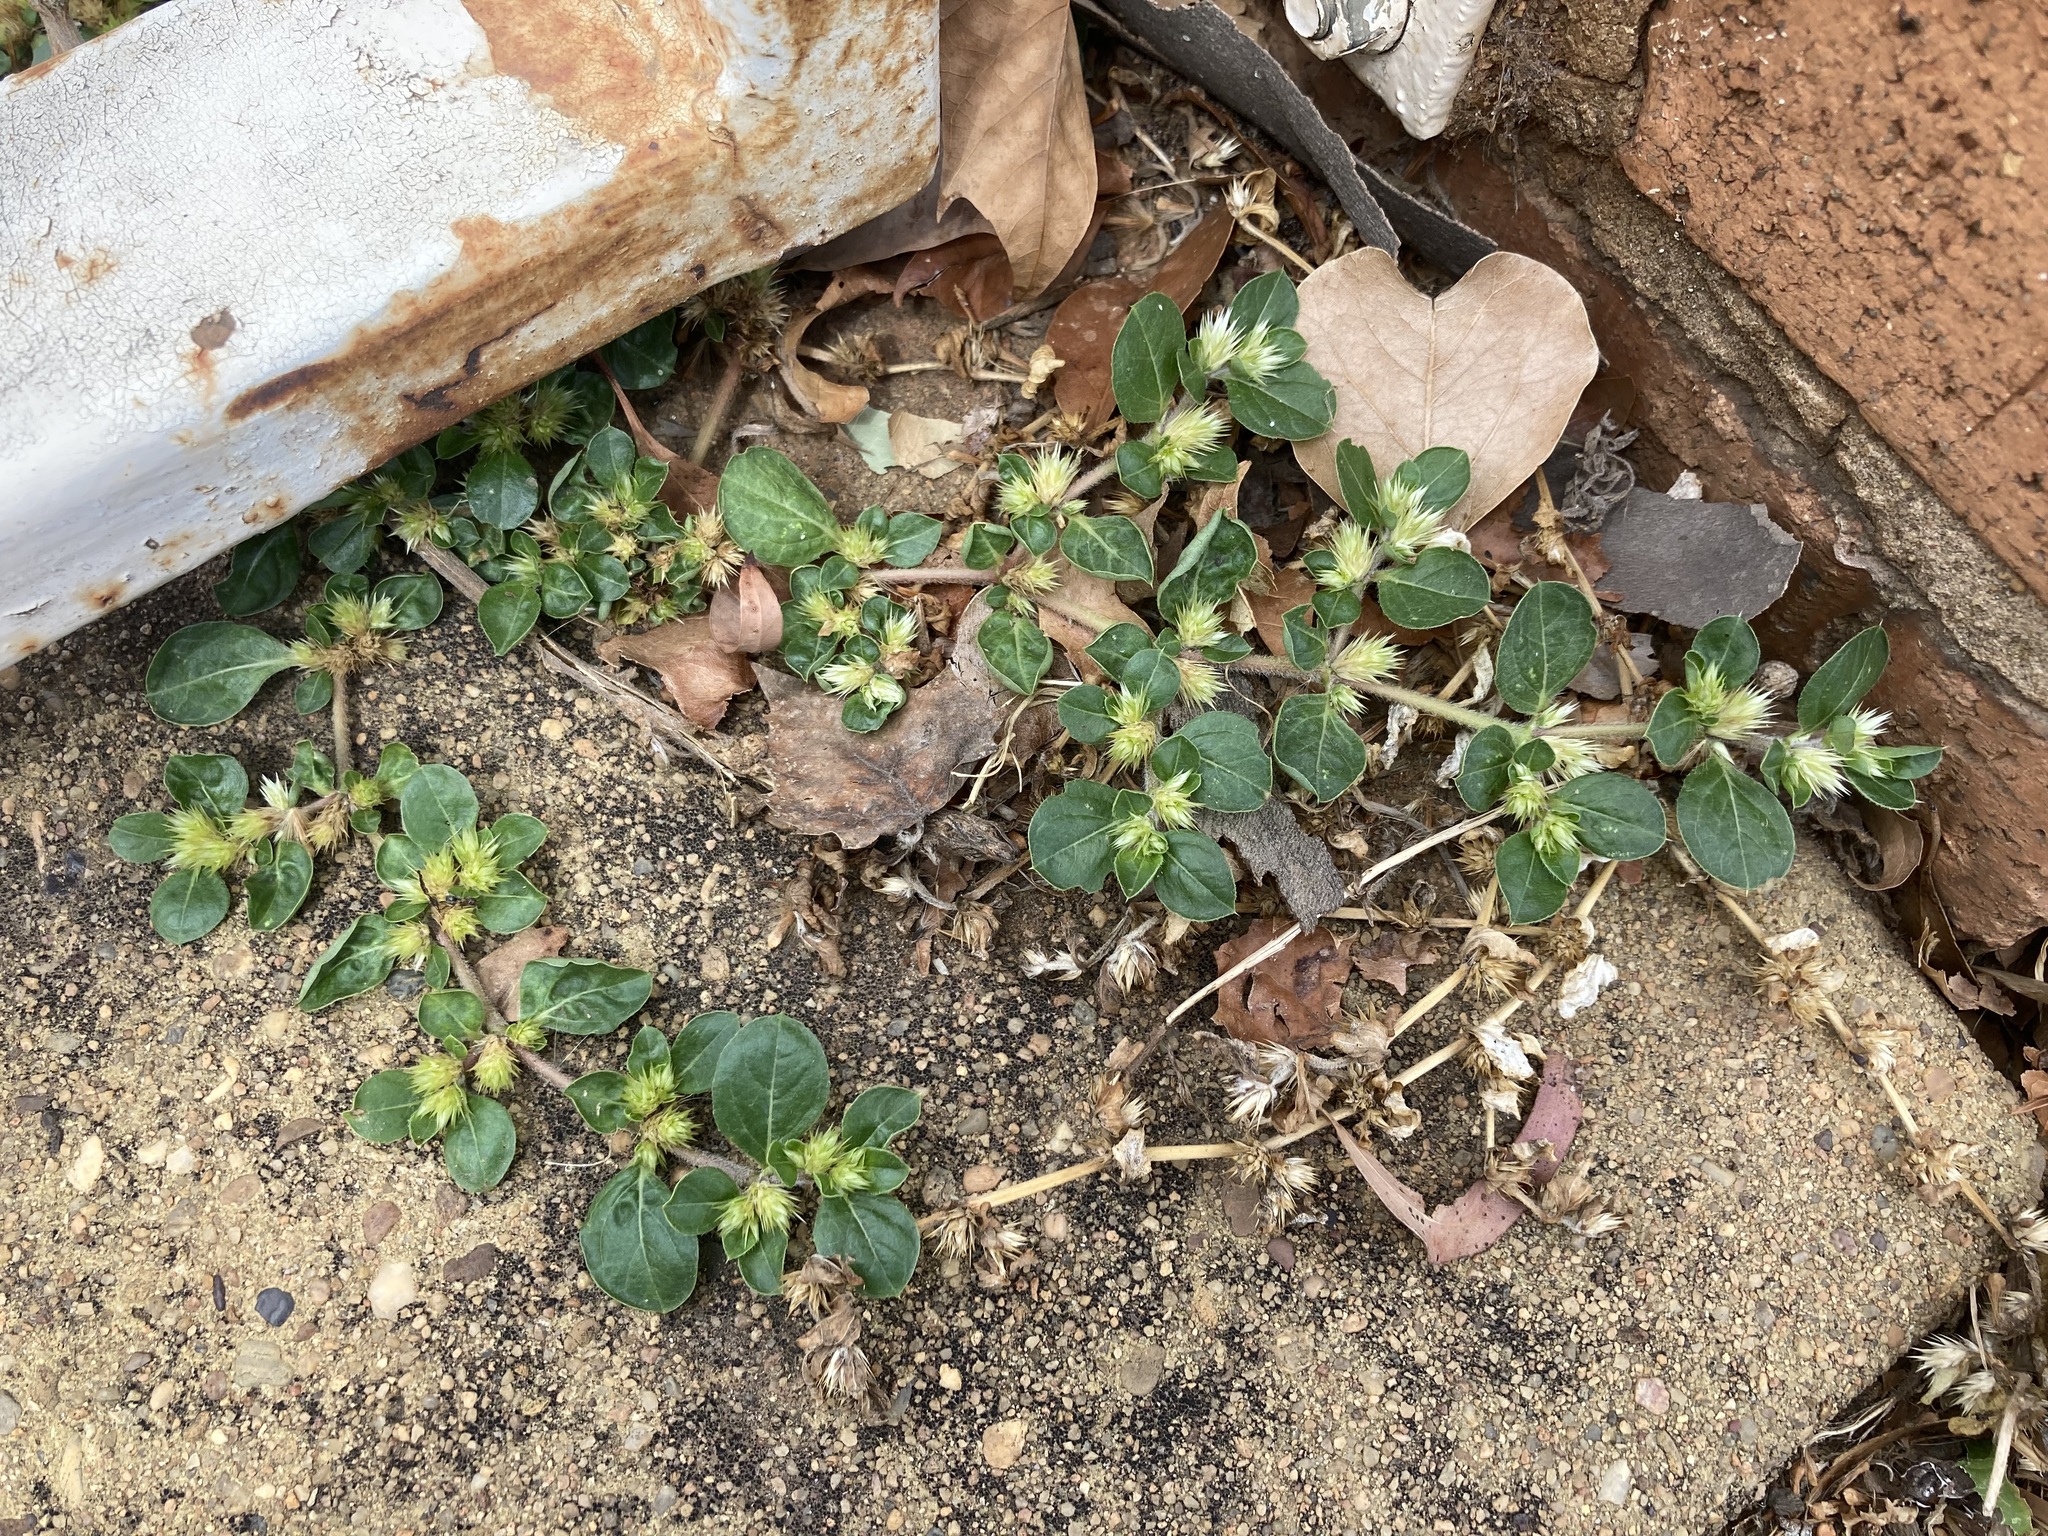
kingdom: Plantae
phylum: Tracheophyta
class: Magnoliopsida
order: Caryophyllales
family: Amaranthaceae
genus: Alternanthera
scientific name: Alternanthera pungens
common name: Khakiweed
